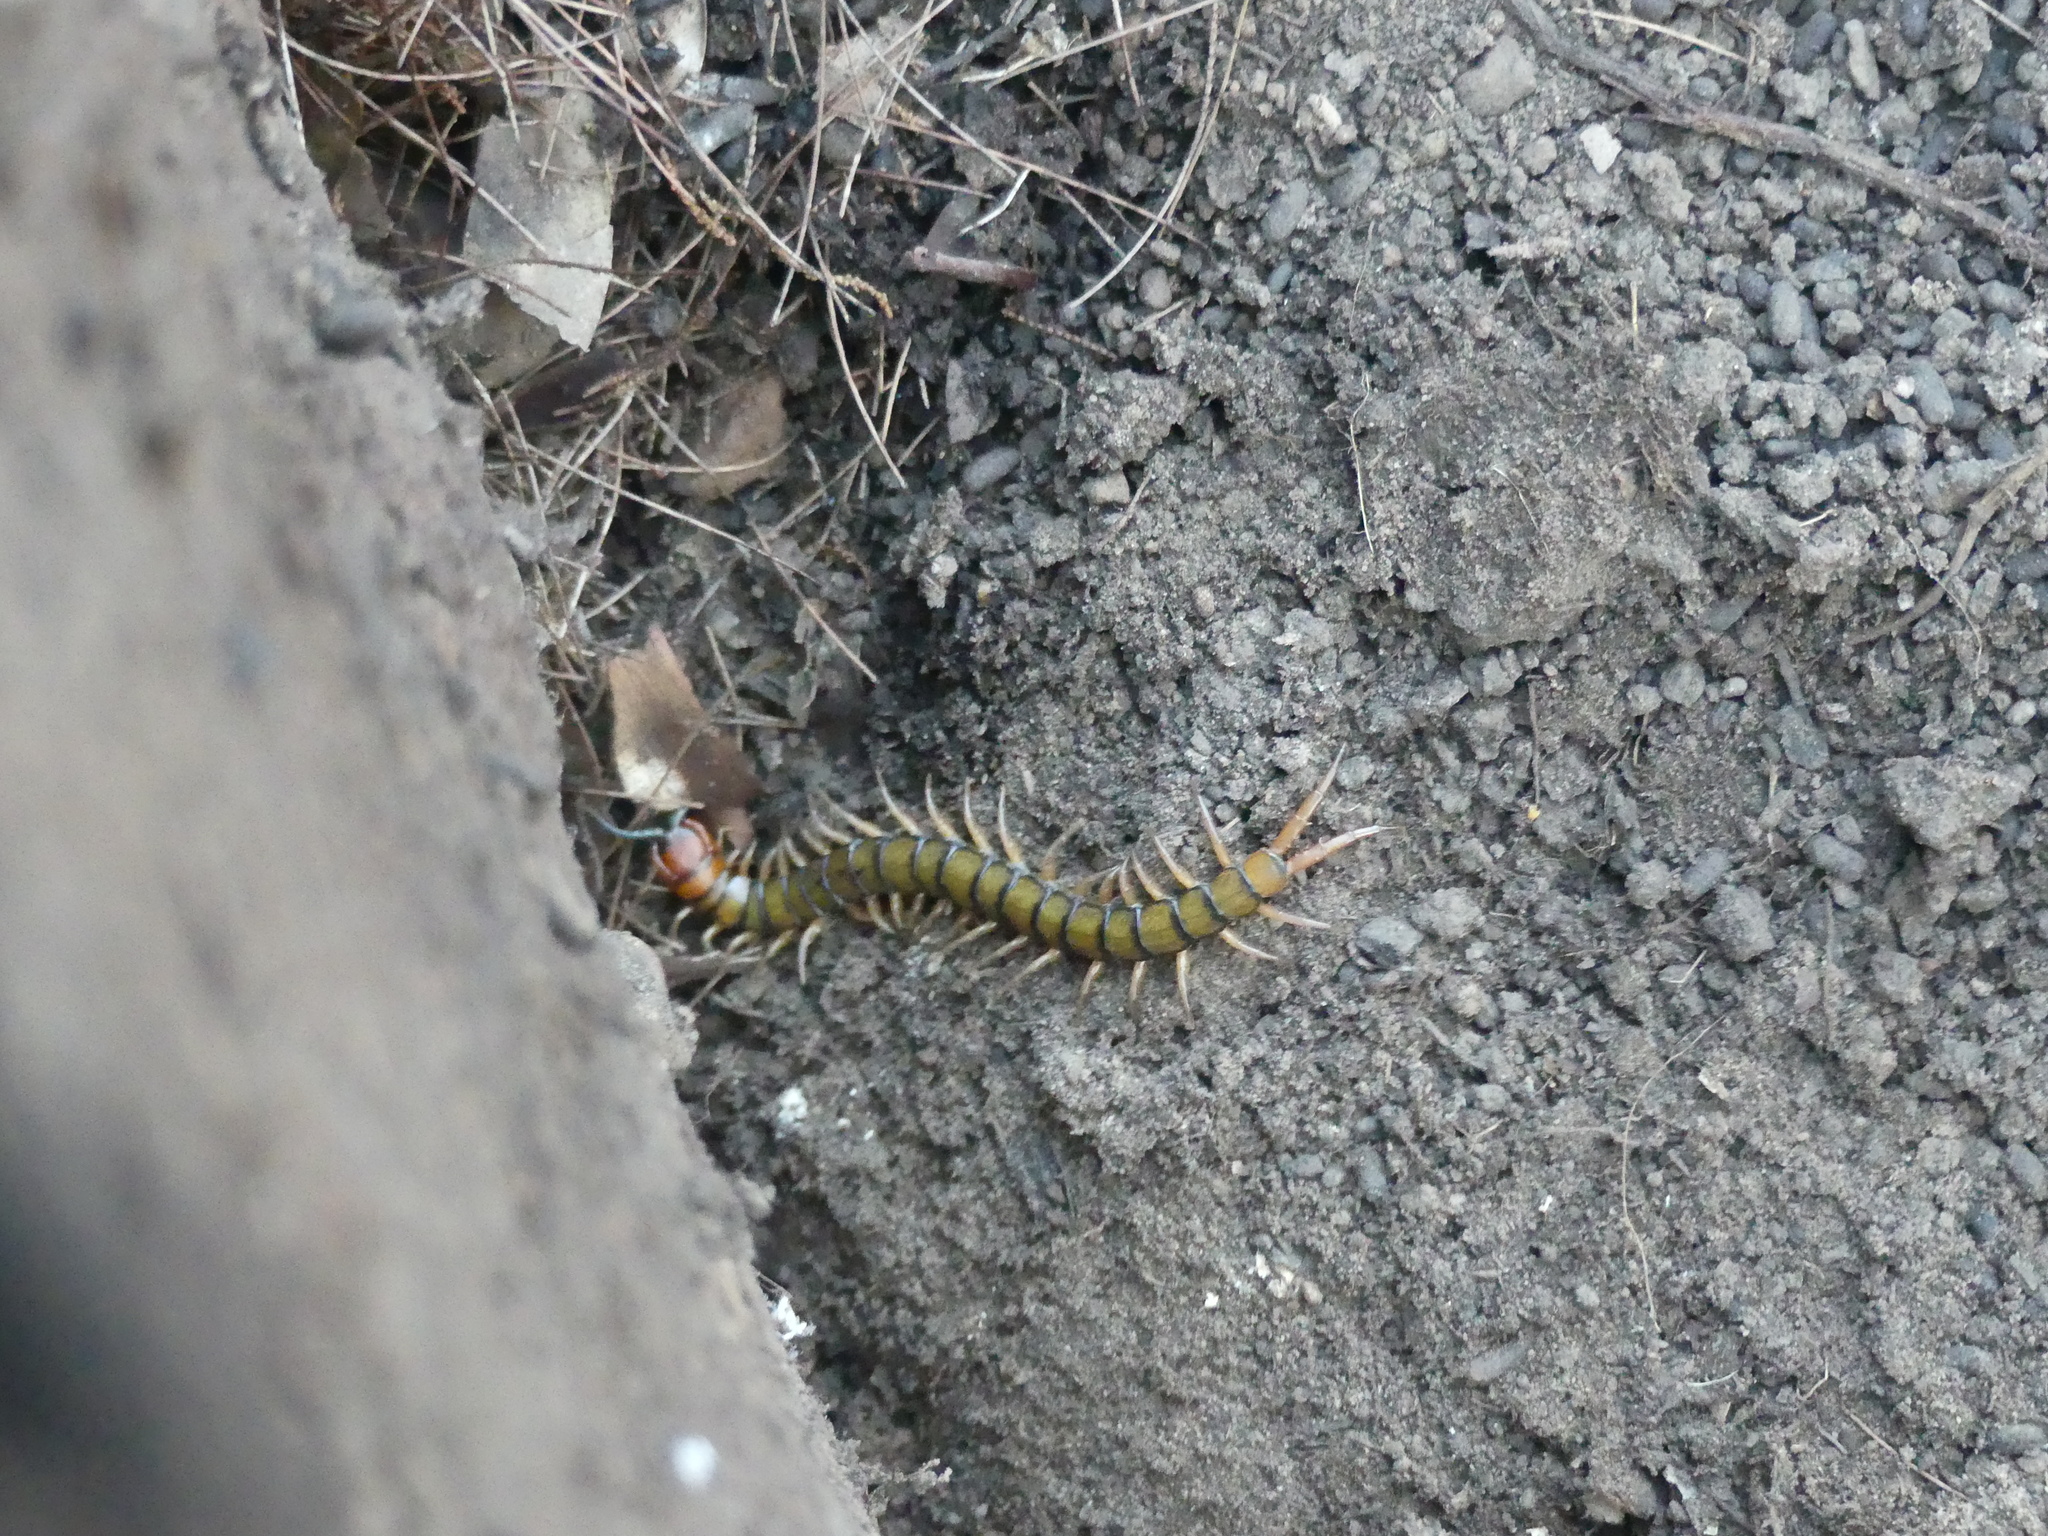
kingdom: Animalia
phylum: Arthropoda
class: Chilopoda
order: Scolopendromorpha
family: Scolopendridae
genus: Cormocephalus
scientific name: Cormocephalus aurantiipes
